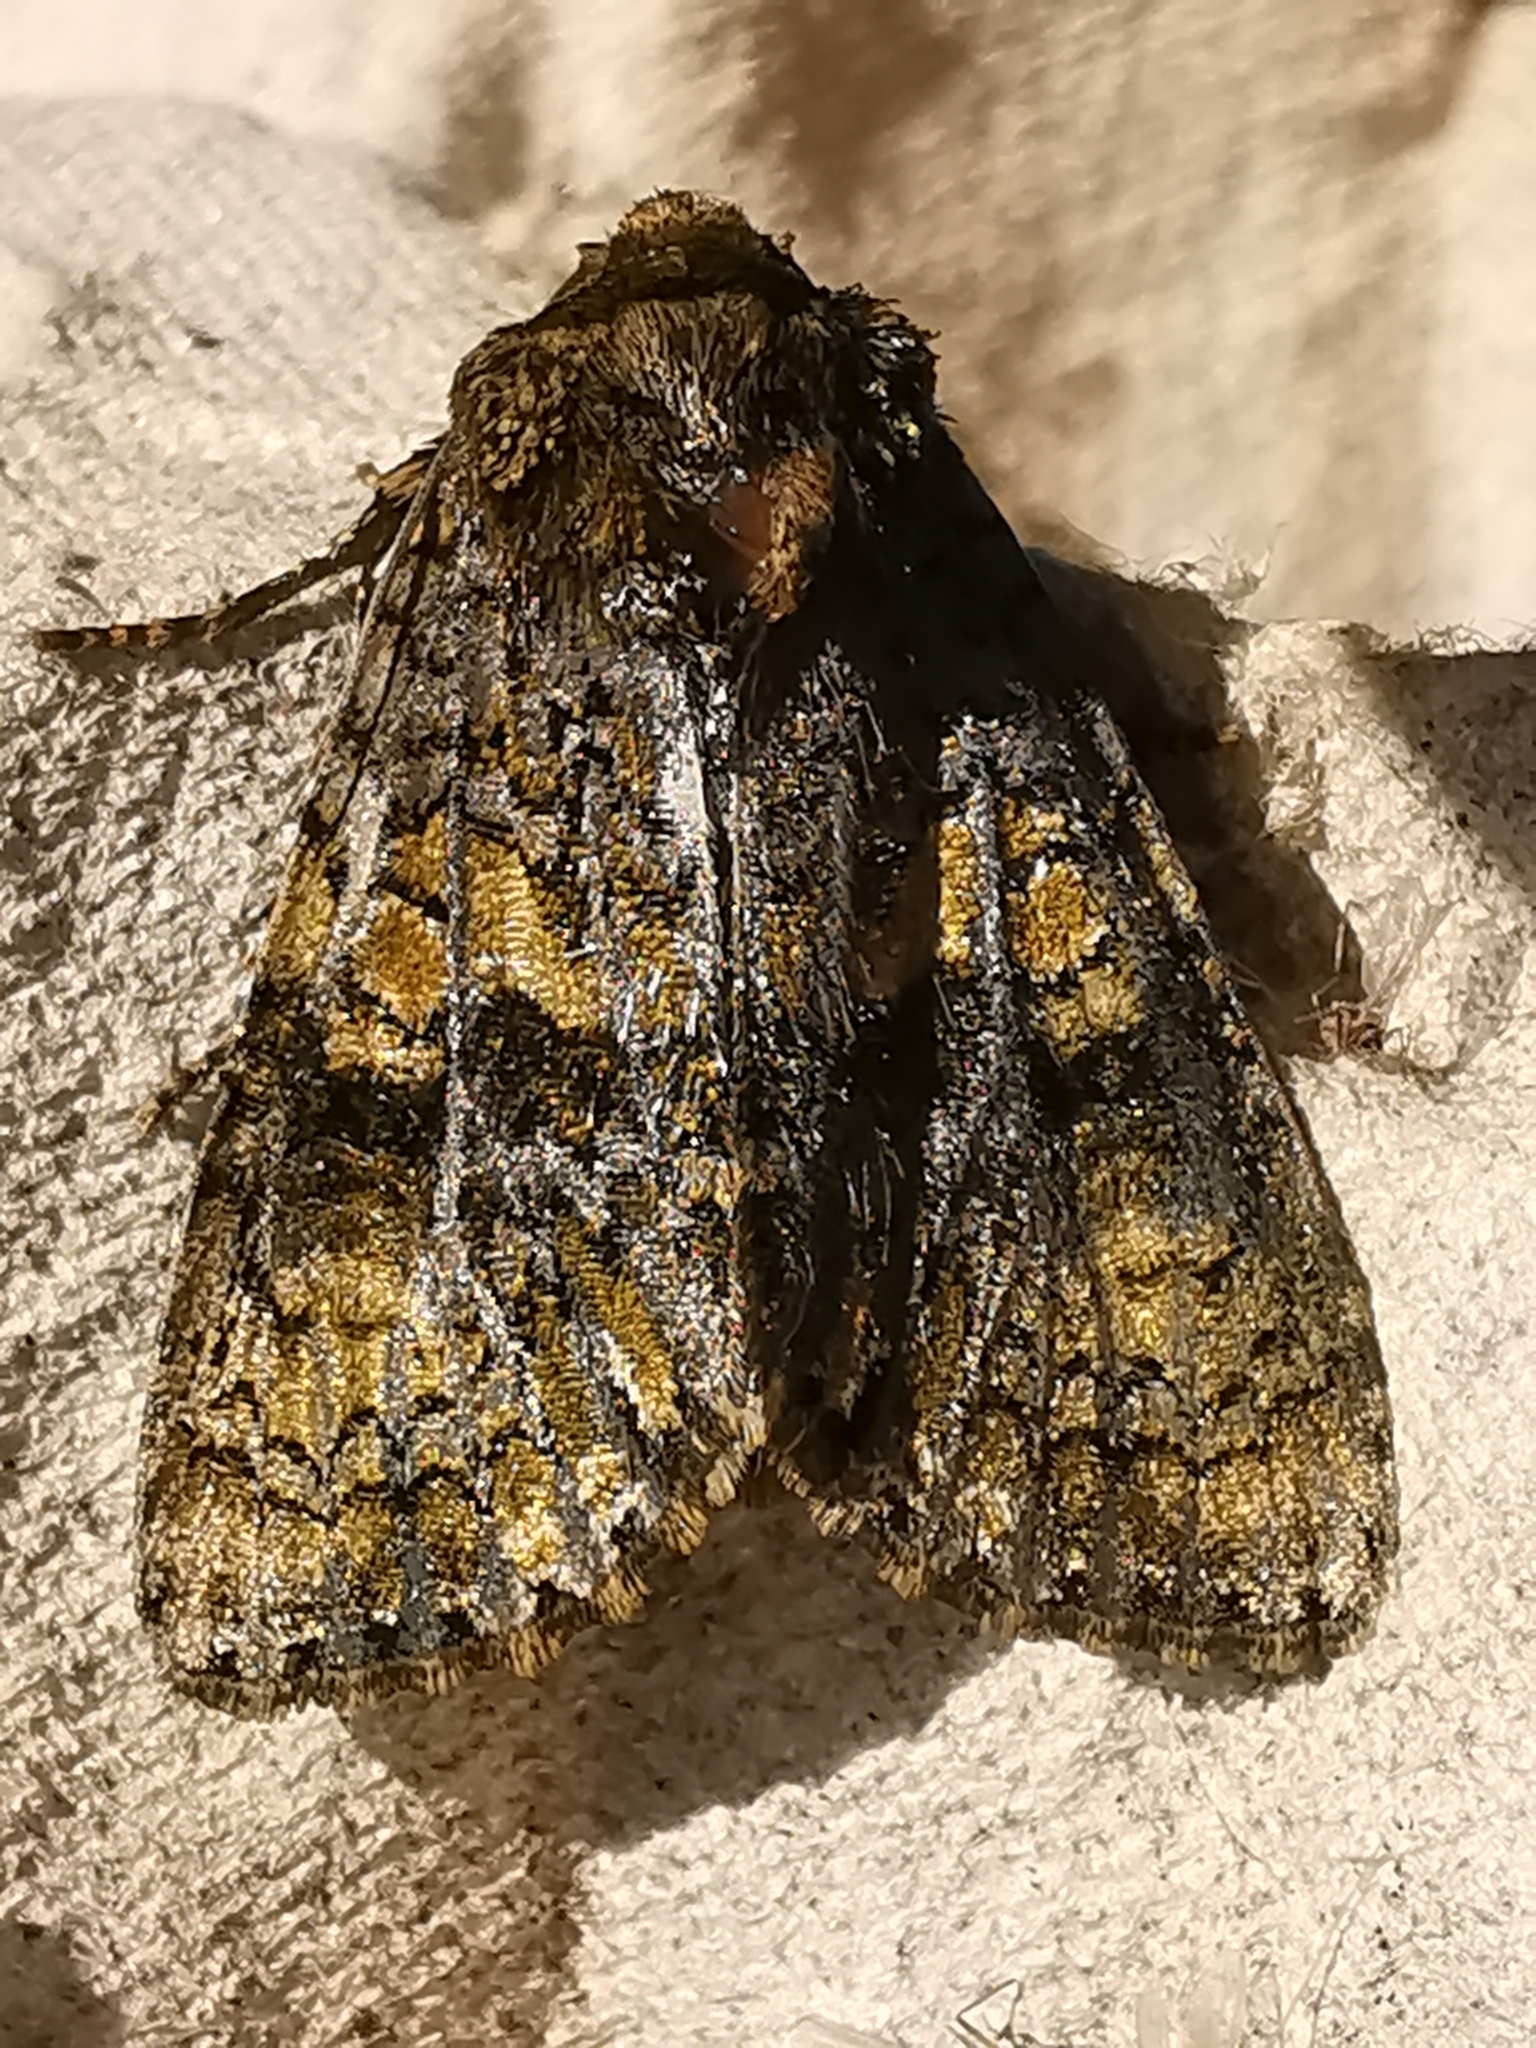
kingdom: Animalia
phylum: Arthropoda
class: Insecta
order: Lepidoptera
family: Noctuidae
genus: Craniophora
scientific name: Craniophora ligustri
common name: Coronet
